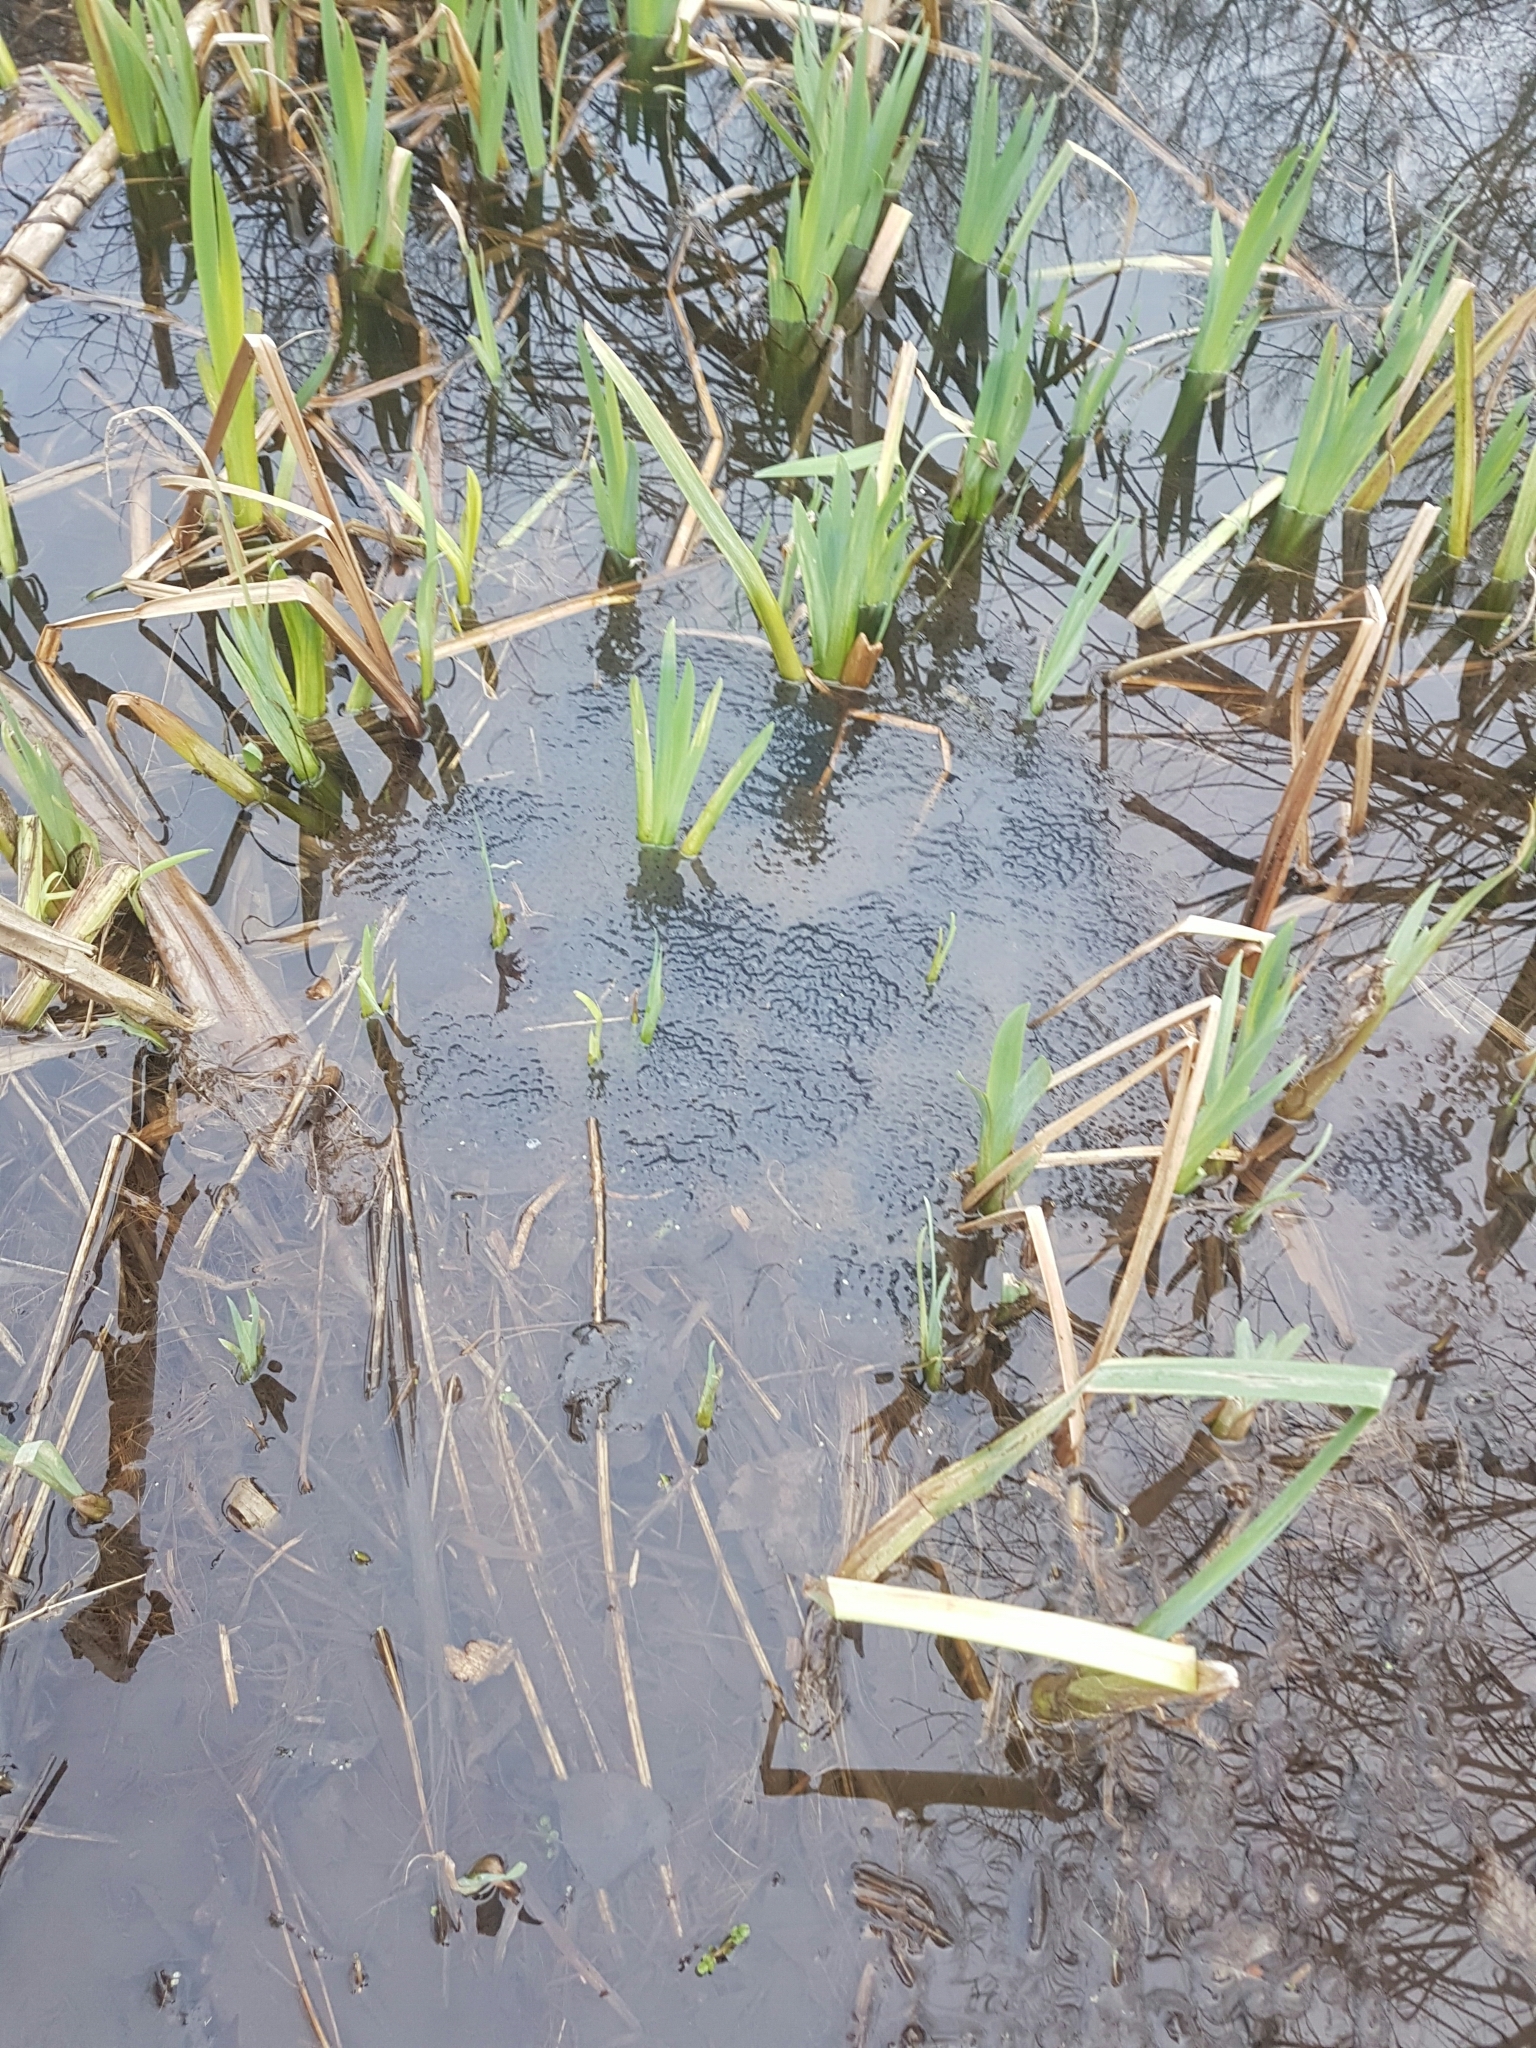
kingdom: Animalia
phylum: Chordata
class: Amphibia
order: Anura
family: Ranidae
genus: Rana
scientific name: Rana temporaria
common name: Common frog
